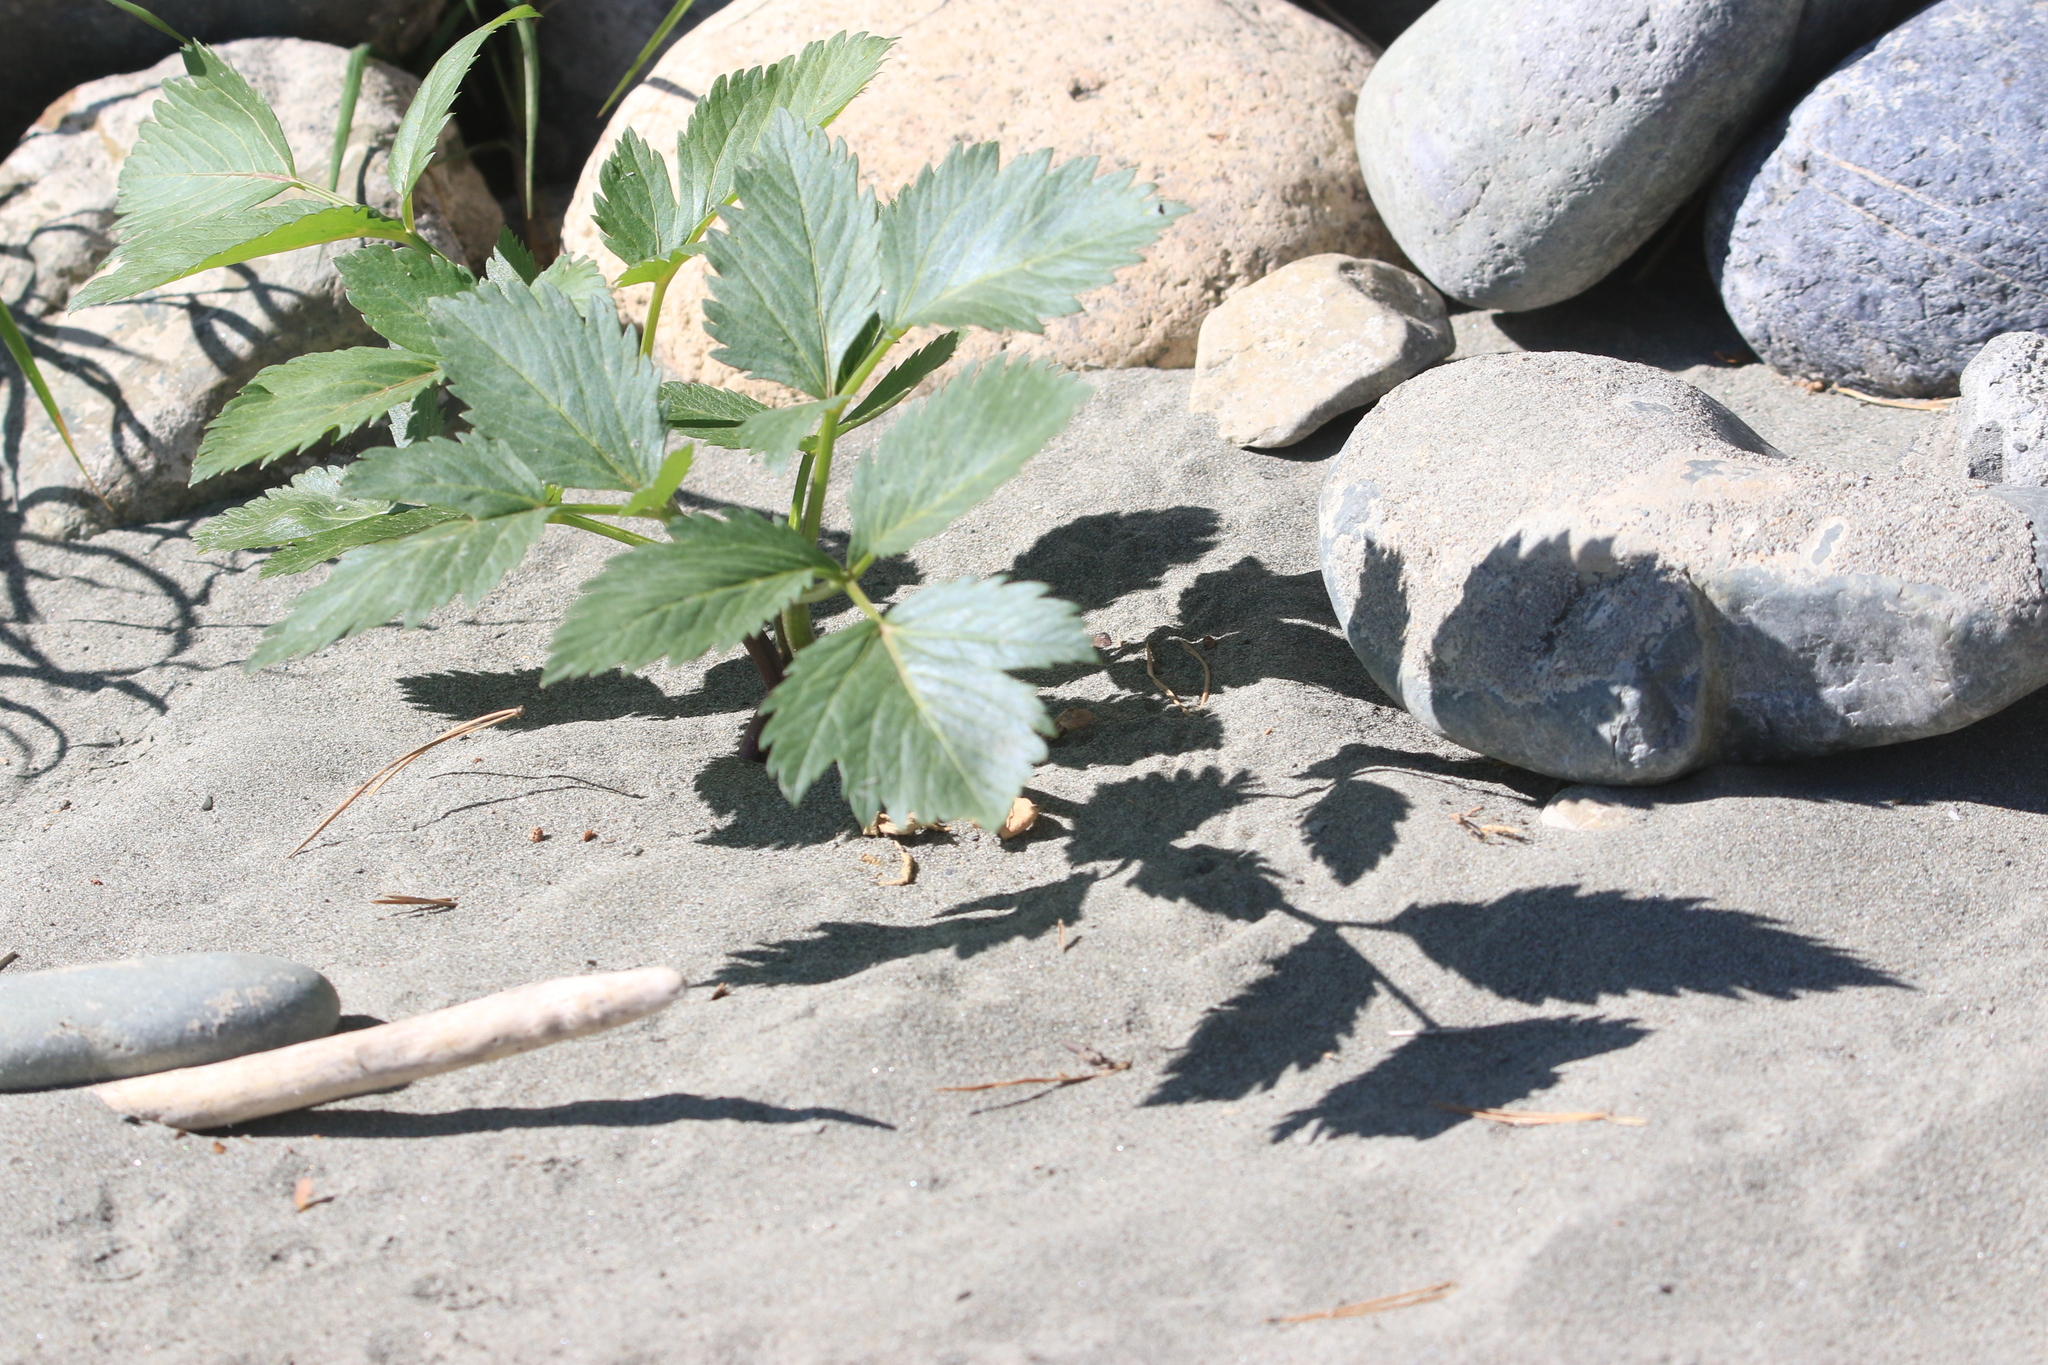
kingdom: Plantae
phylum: Tracheophyta
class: Magnoliopsida
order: Apiales
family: Apiaceae
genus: Angelica
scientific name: Angelica decurrens
